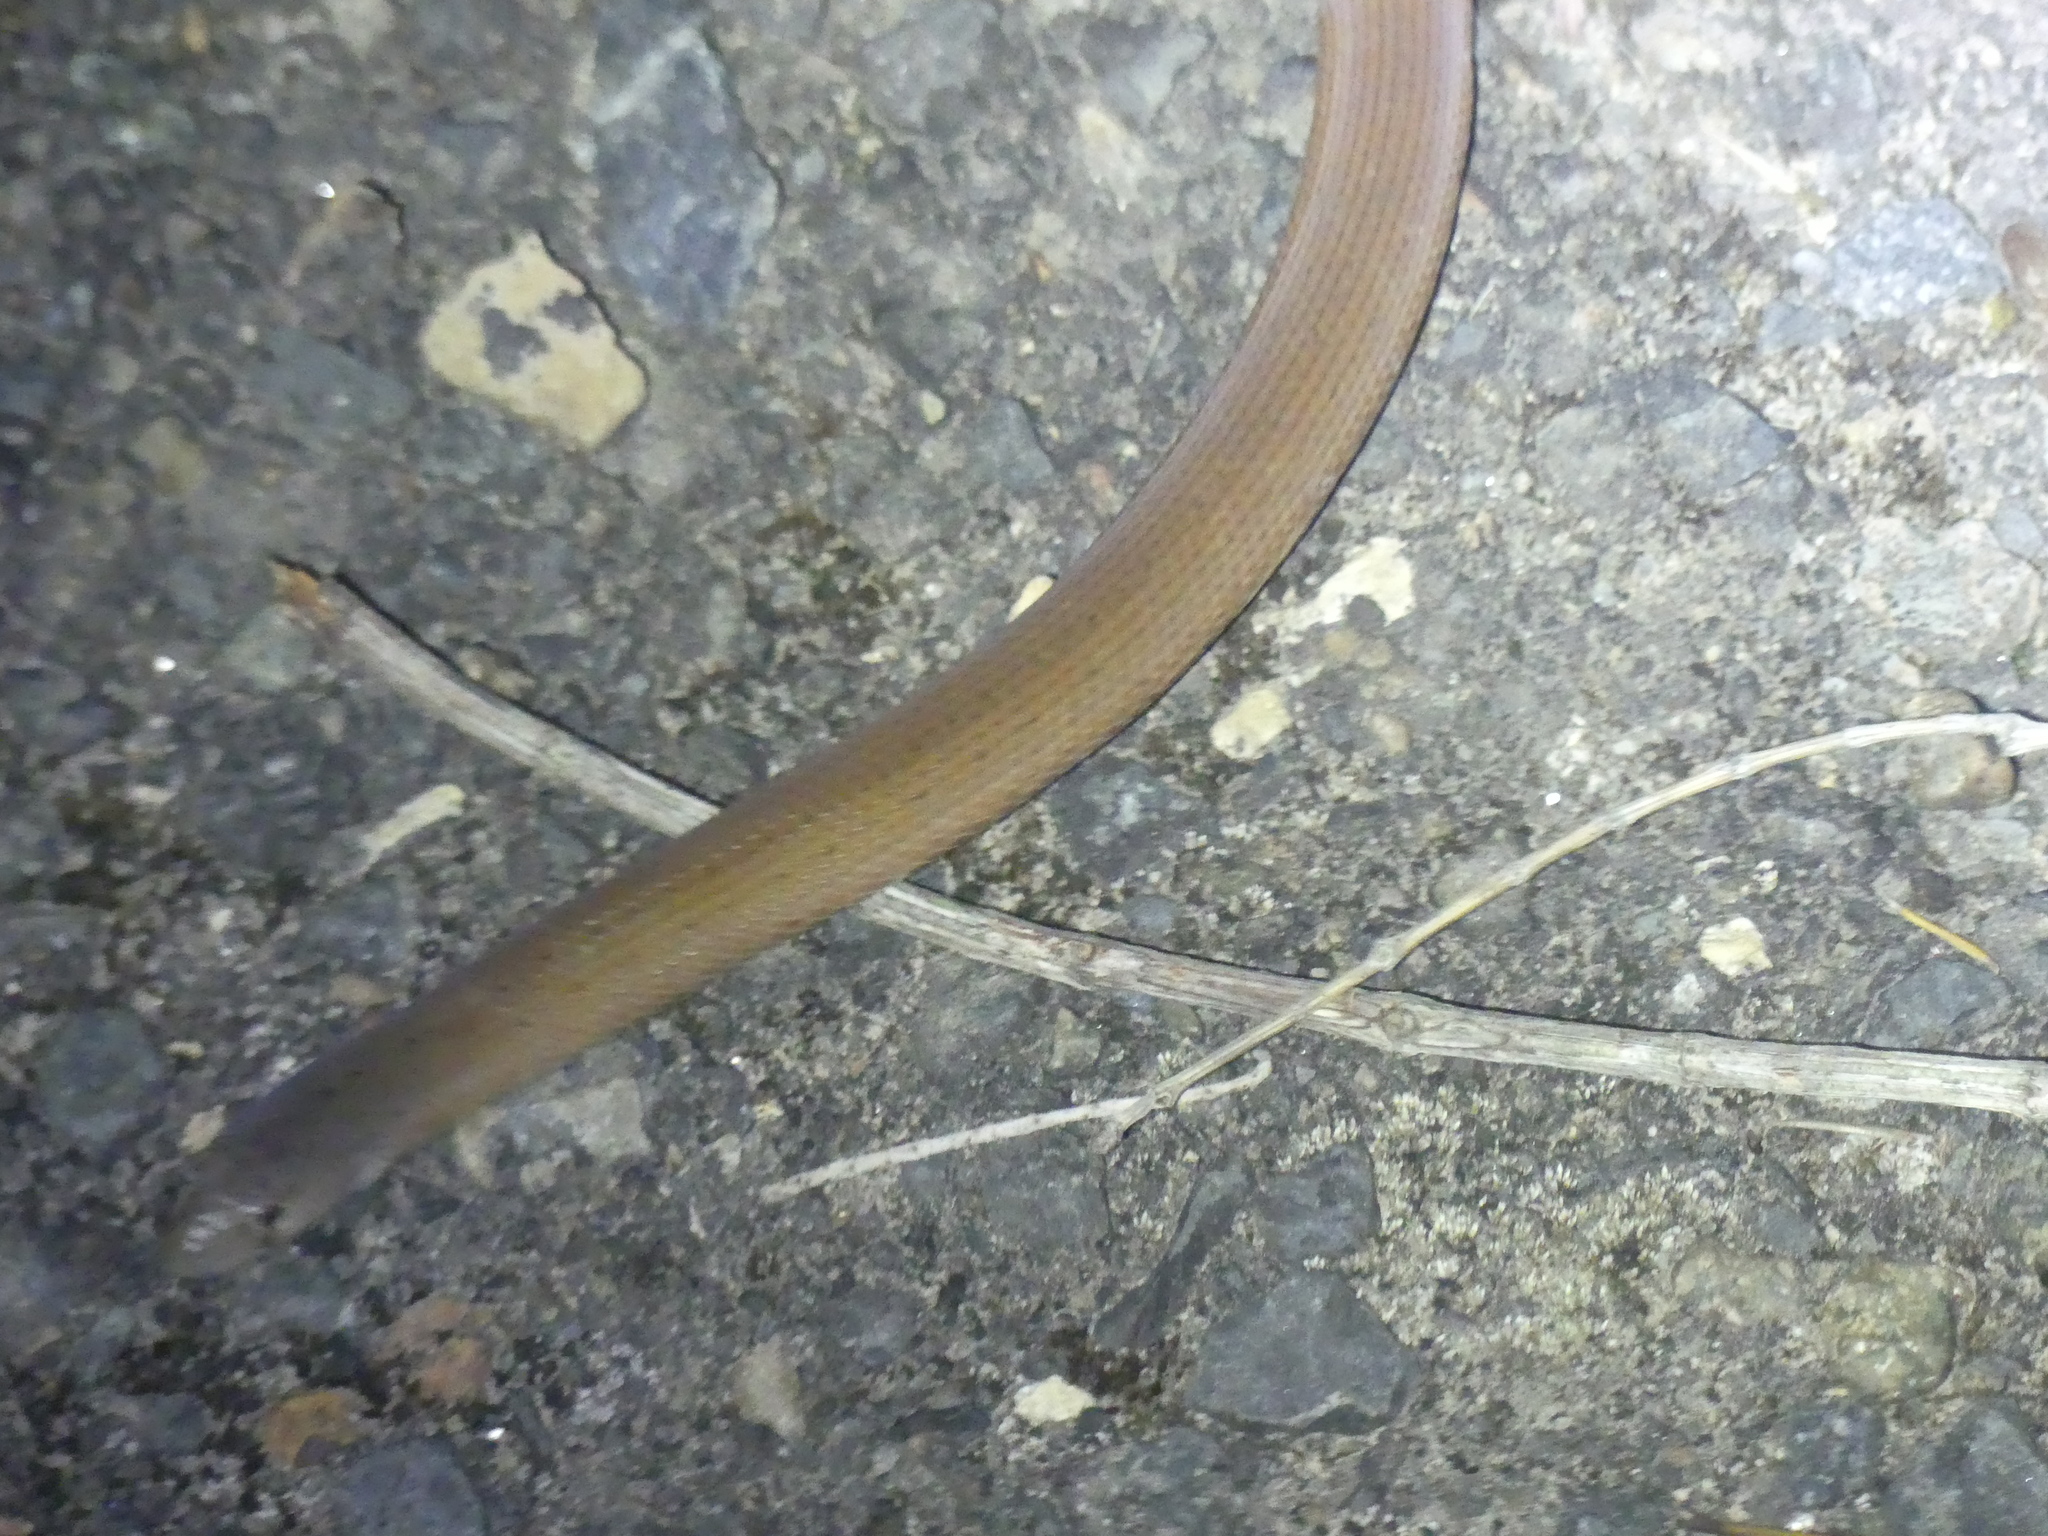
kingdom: Animalia
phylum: Chordata
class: Squamata
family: Pygopodidae
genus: Pygopus
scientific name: Pygopus lepidopodus
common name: Southern scaly-foot
